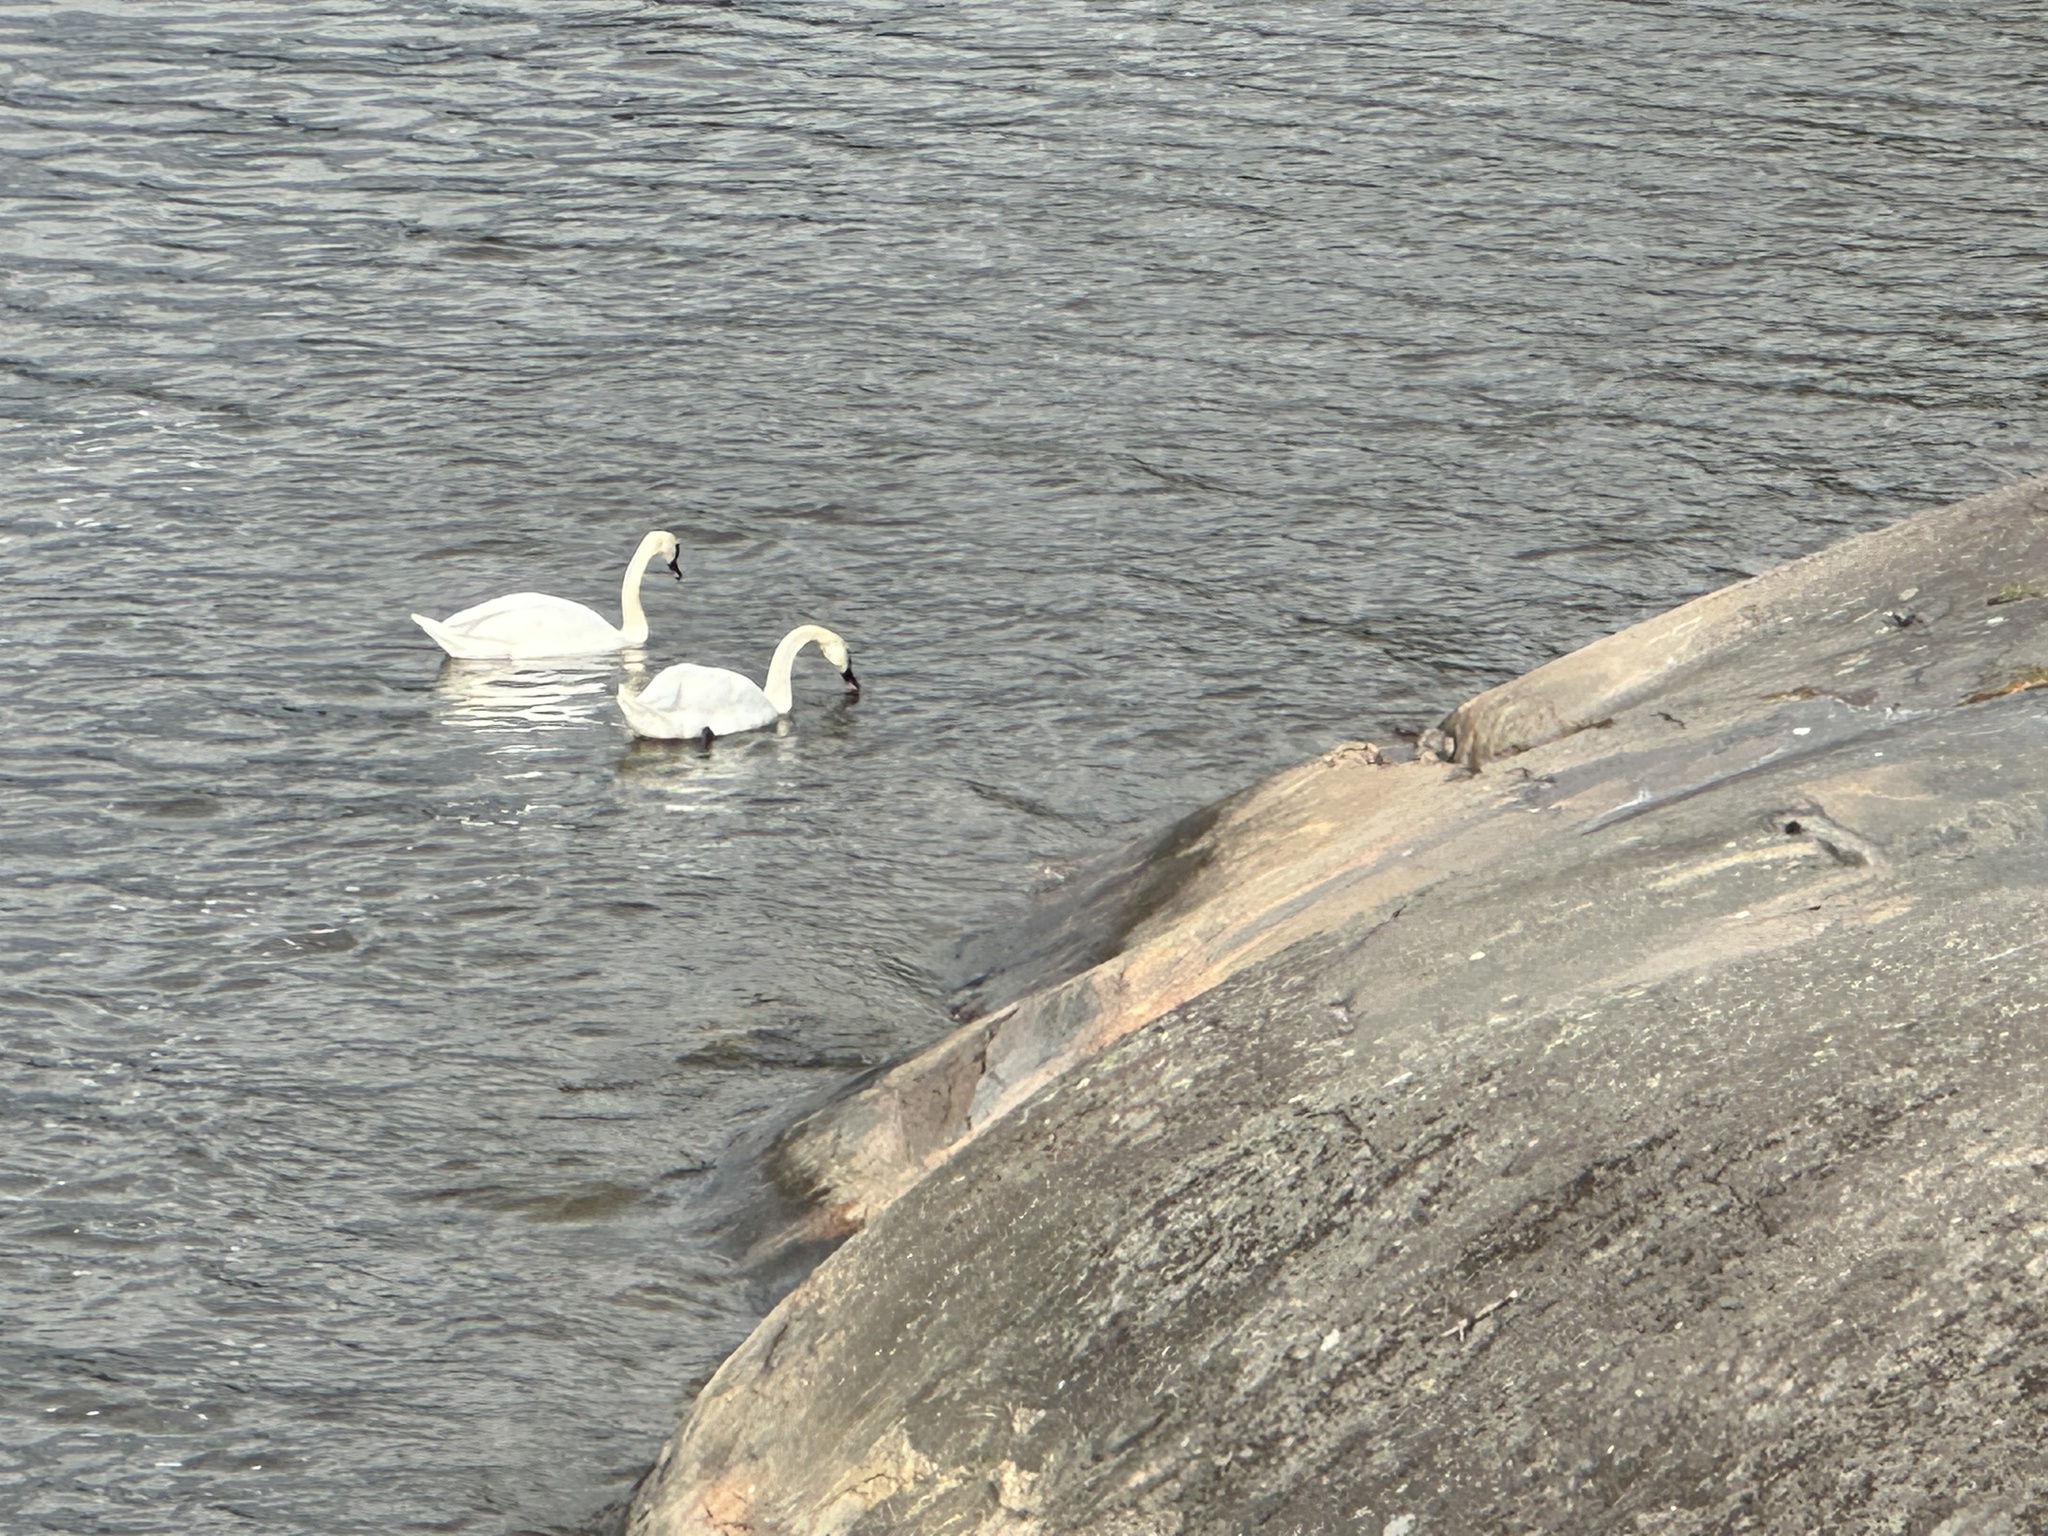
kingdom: Animalia
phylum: Chordata
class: Aves
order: Anseriformes
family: Anatidae
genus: Cygnus
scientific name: Cygnus olor
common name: Mute swan
